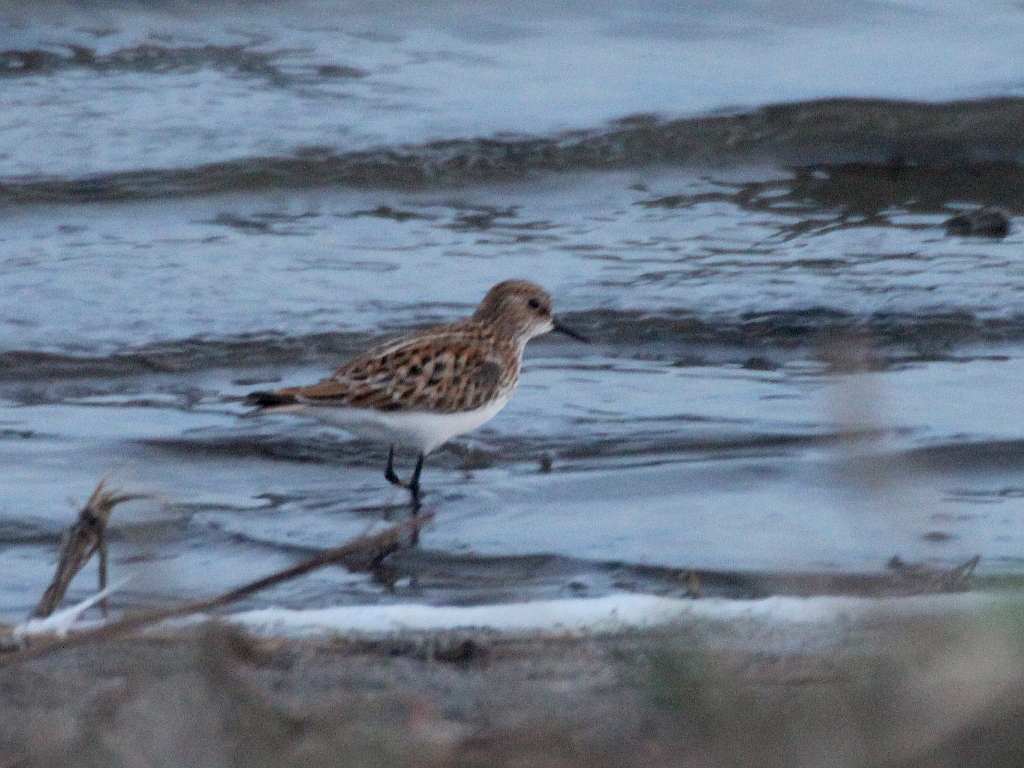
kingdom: Animalia
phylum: Chordata
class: Aves
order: Charadriiformes
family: Scolopacidae
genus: Calidris
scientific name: Calidris minuta
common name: Little stint
